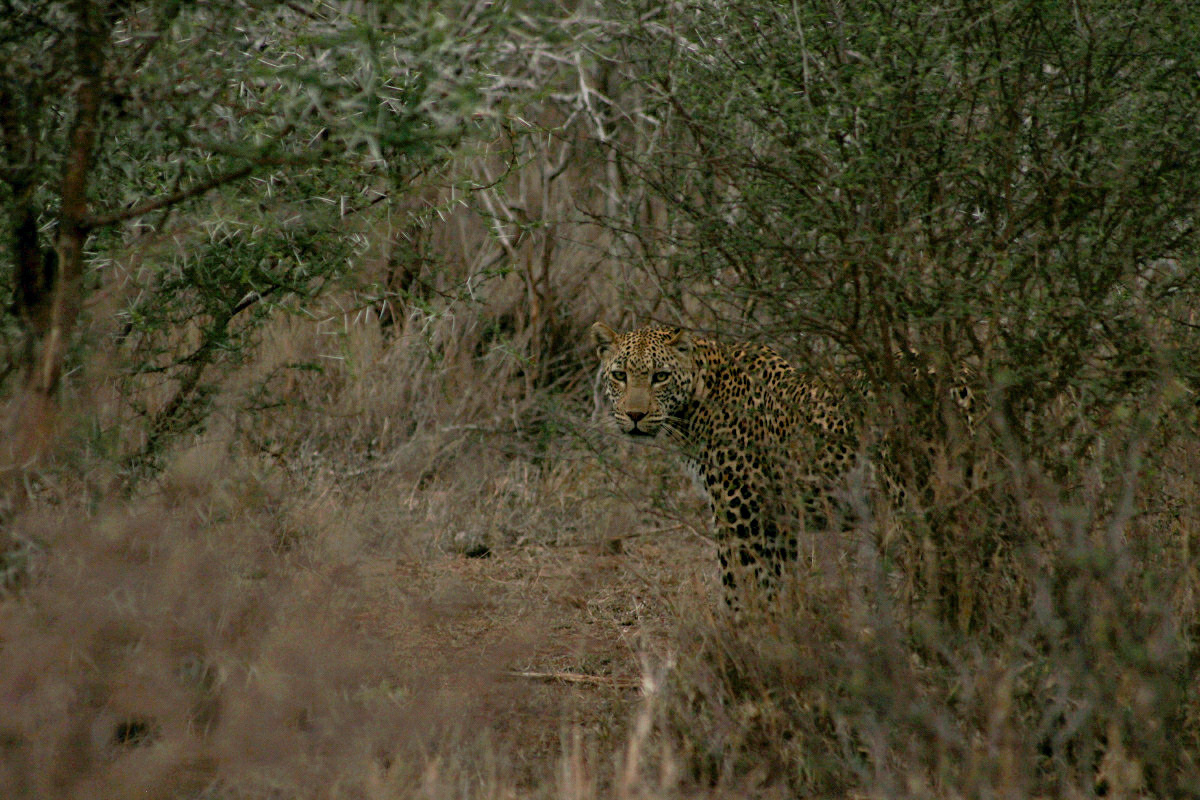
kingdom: Animalia
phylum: Chordata
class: Mammalia
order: Carnivora
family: Felidae
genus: Panthera
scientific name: Panthera pardus
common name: Leopard
